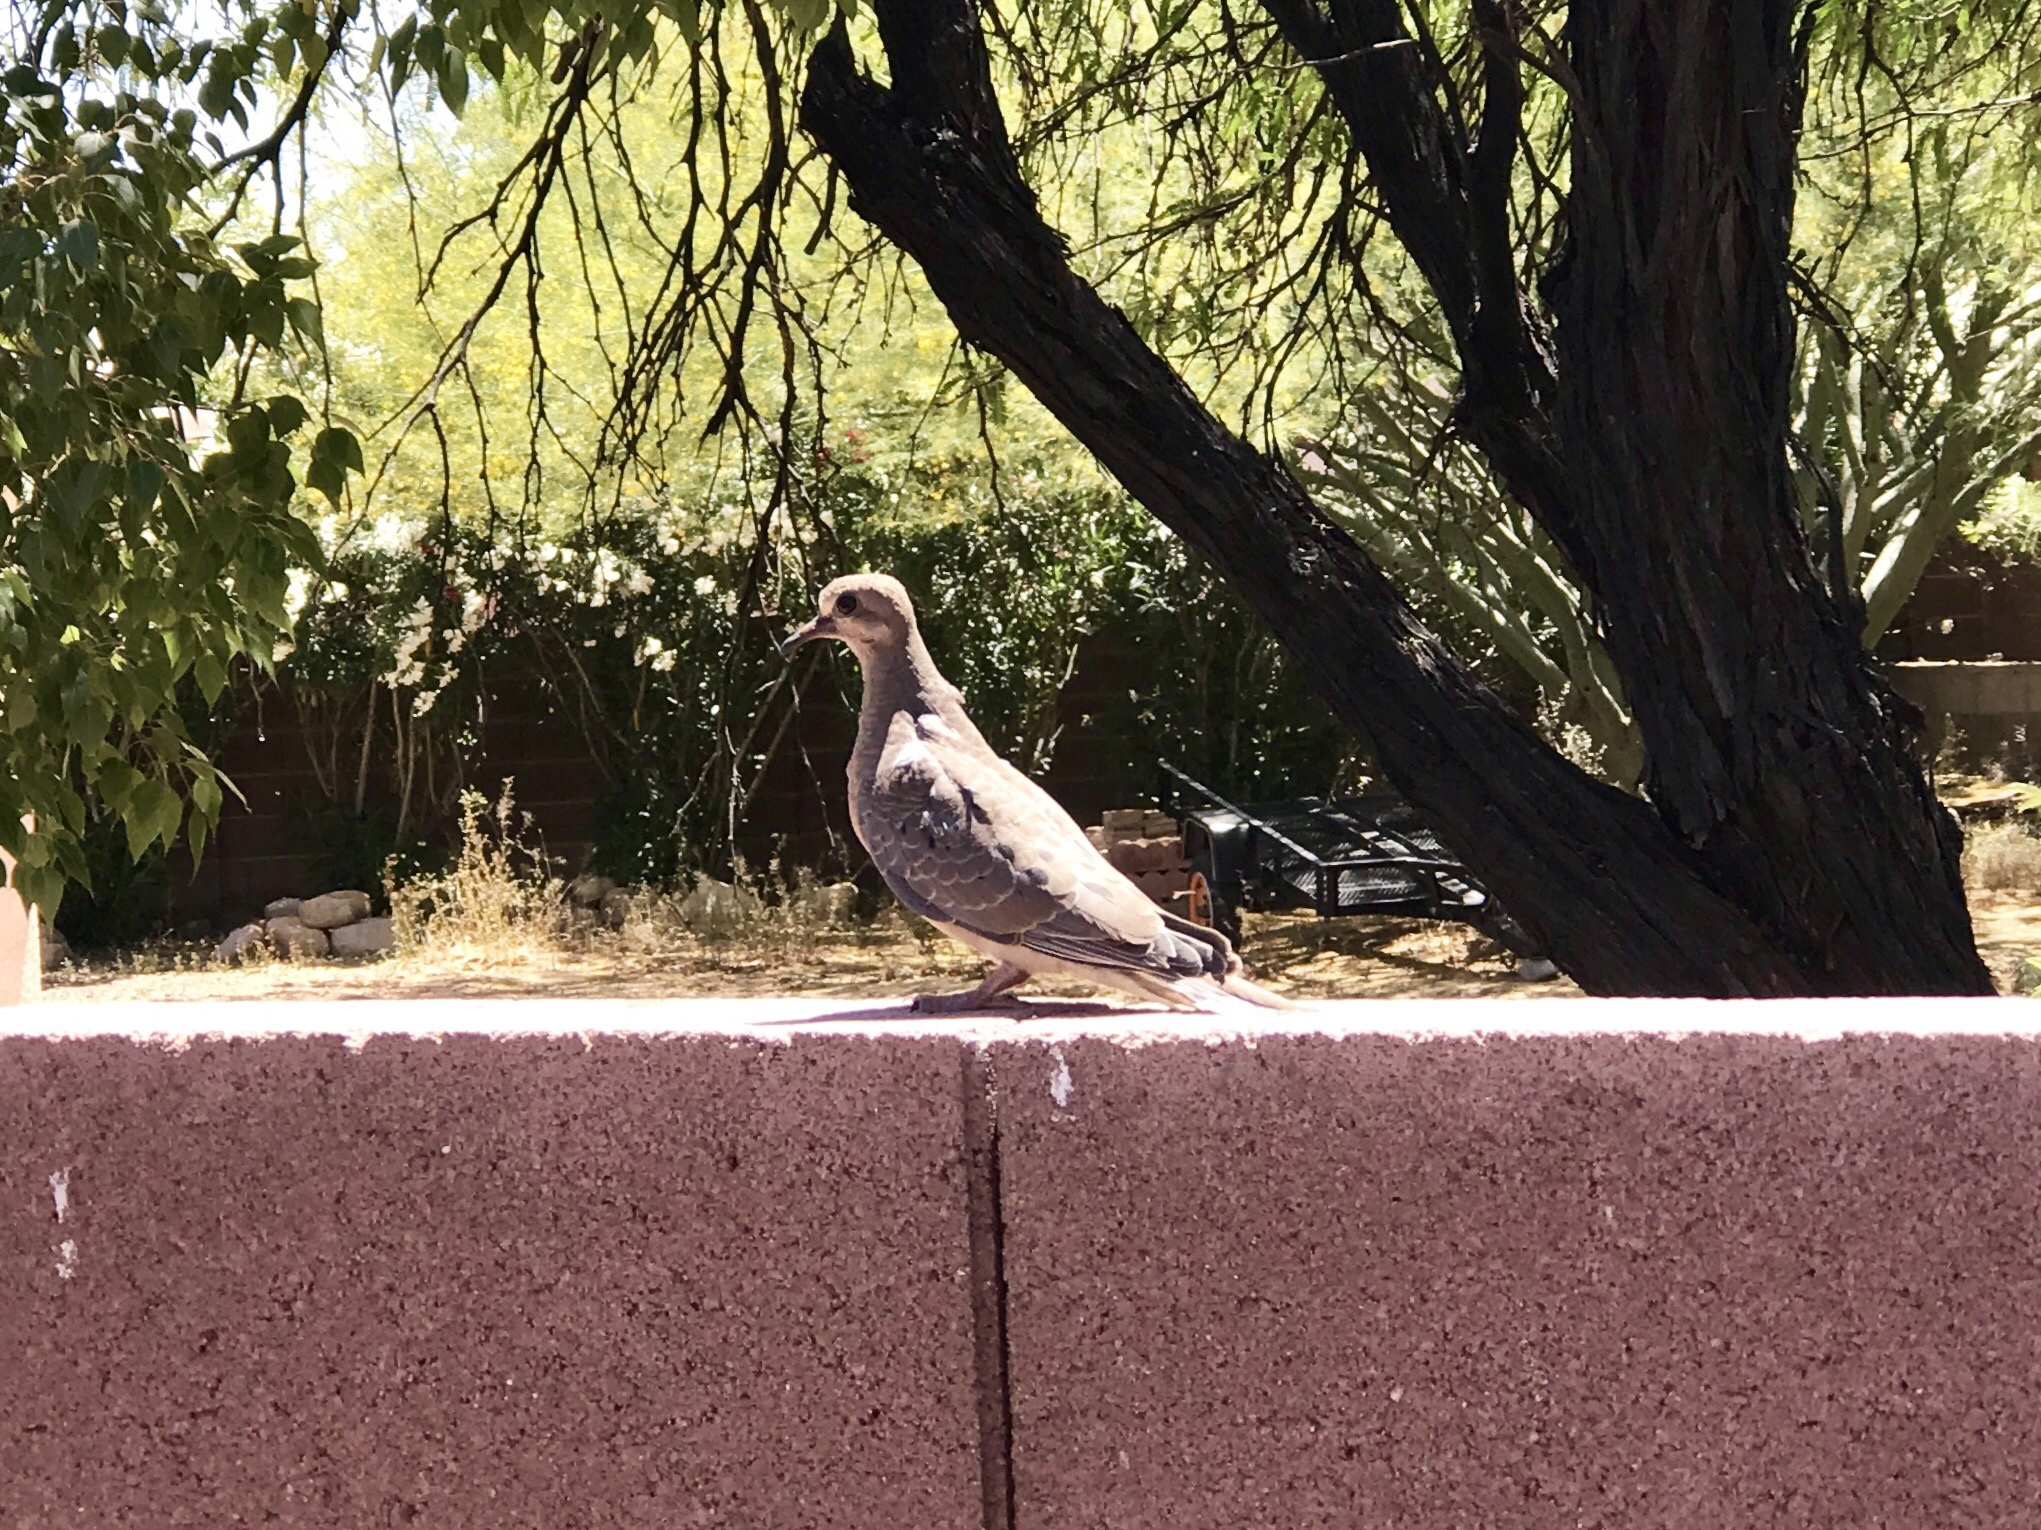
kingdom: Animalia
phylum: Chordata
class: Aves
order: Columbiformes
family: Columbidae
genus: Zenaida
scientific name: Zenaida macroura
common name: Mourning dove
